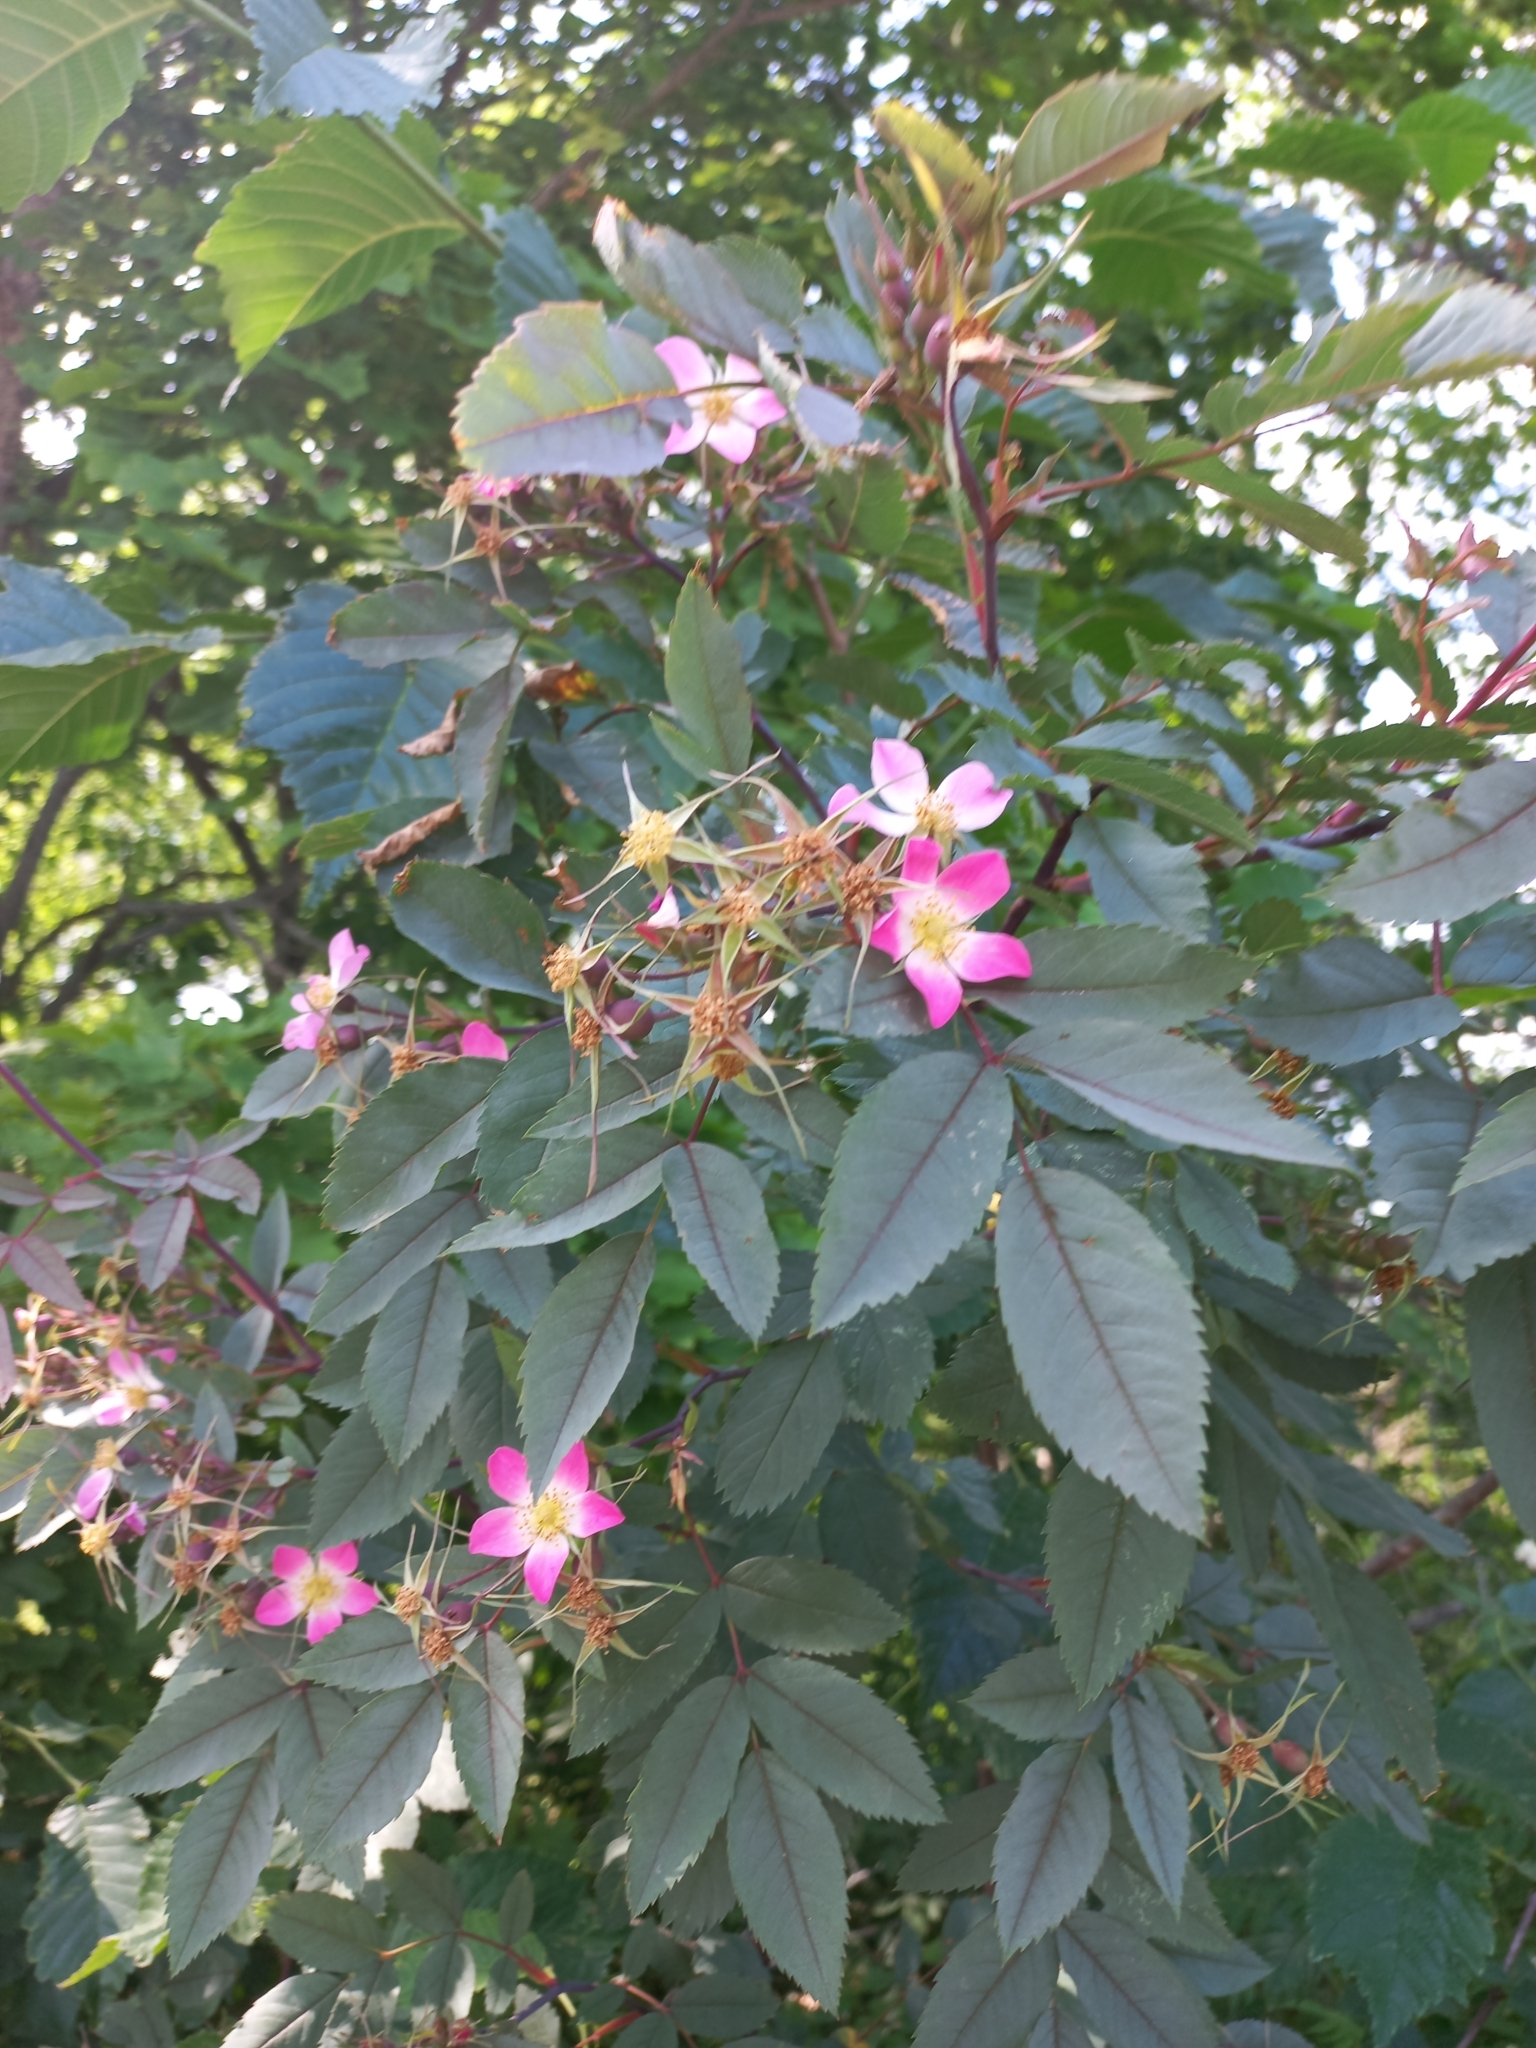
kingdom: Plantae
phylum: Tracheophyta
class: Magnoliopsida
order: Rosales
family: Rosaceae
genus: Rosa
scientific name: Rosa glauca
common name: Redleaf rose
